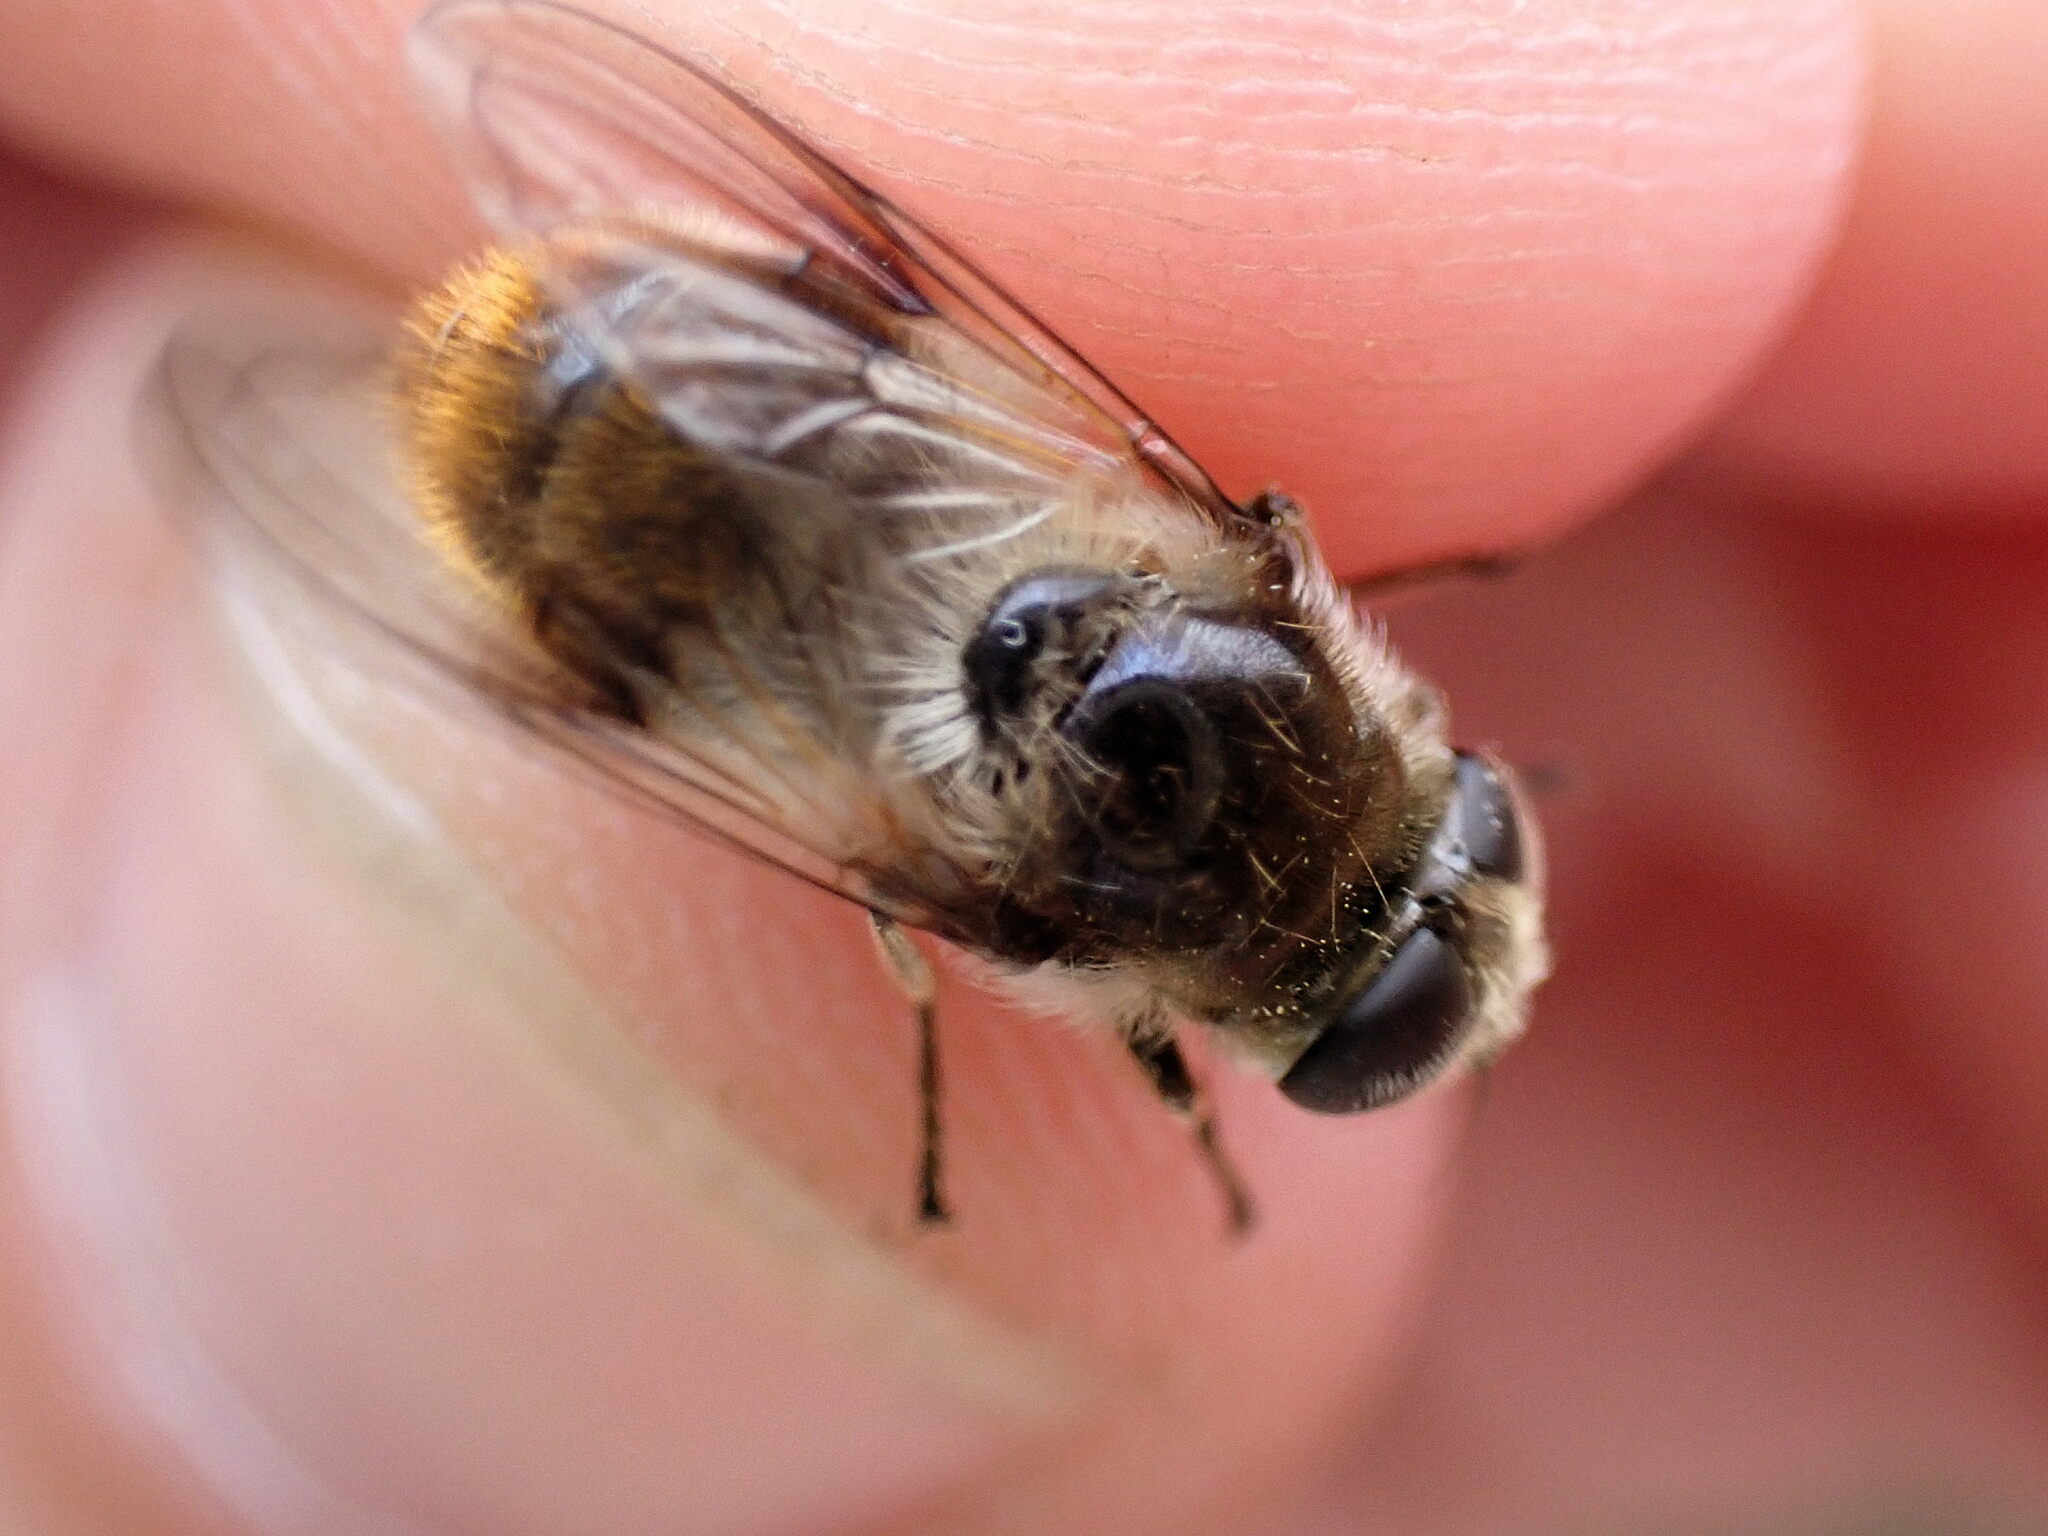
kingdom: Animalia
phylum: Arthropoda
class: Insecta
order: Diptera
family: Syrphidae
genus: Cheilosia
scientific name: Cheilosia illustrata
